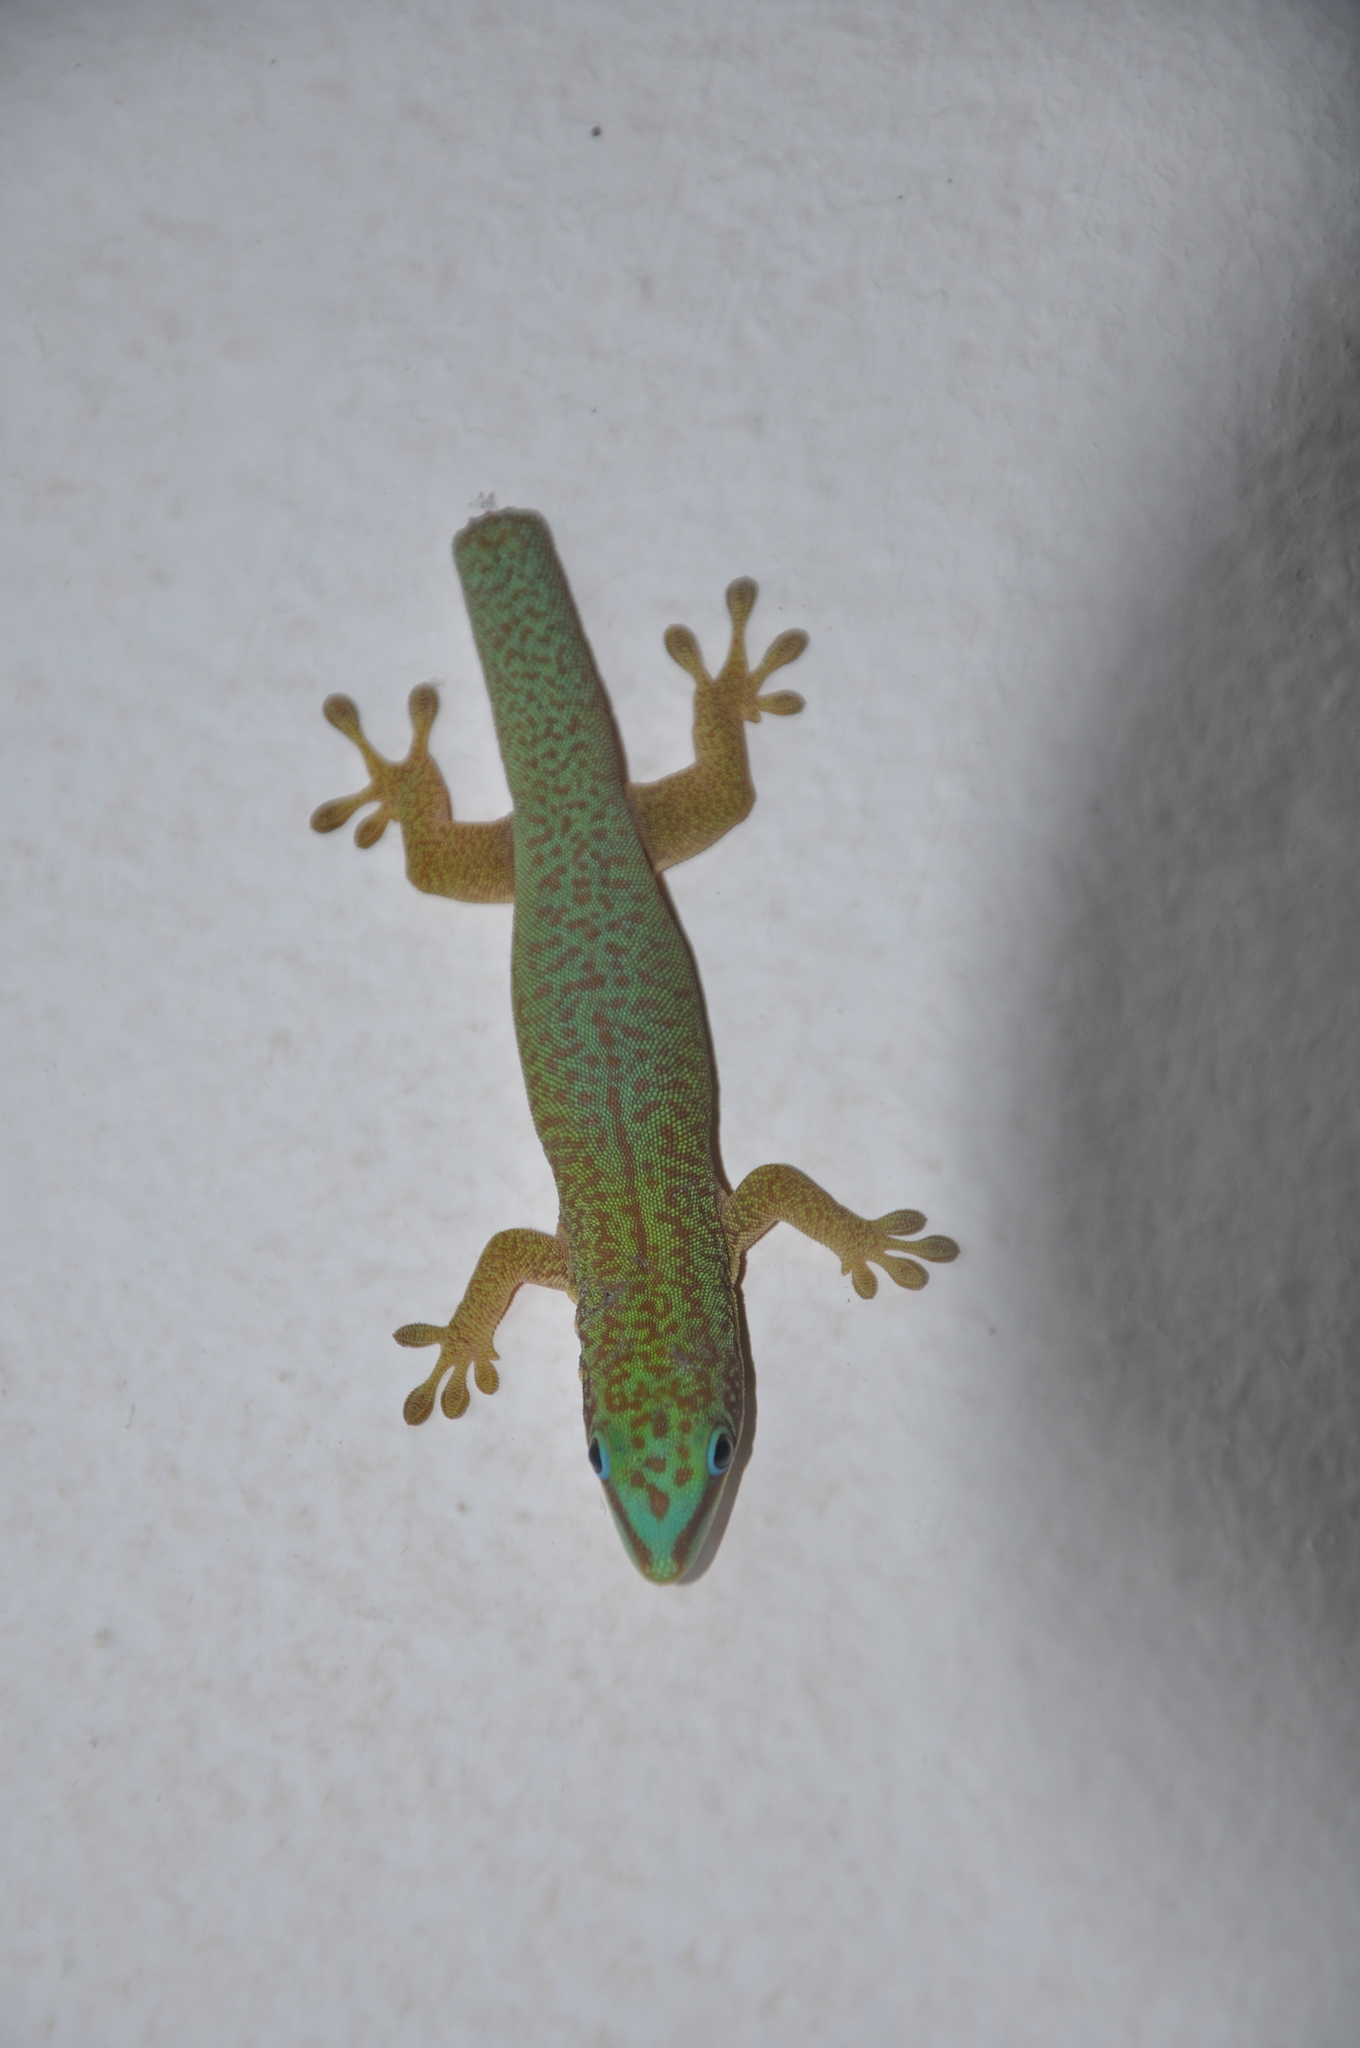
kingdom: Animalia
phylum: Chordata
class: Squamata
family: Gekkonidae
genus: Phelsuma
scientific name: Phelsuma hielscheri
